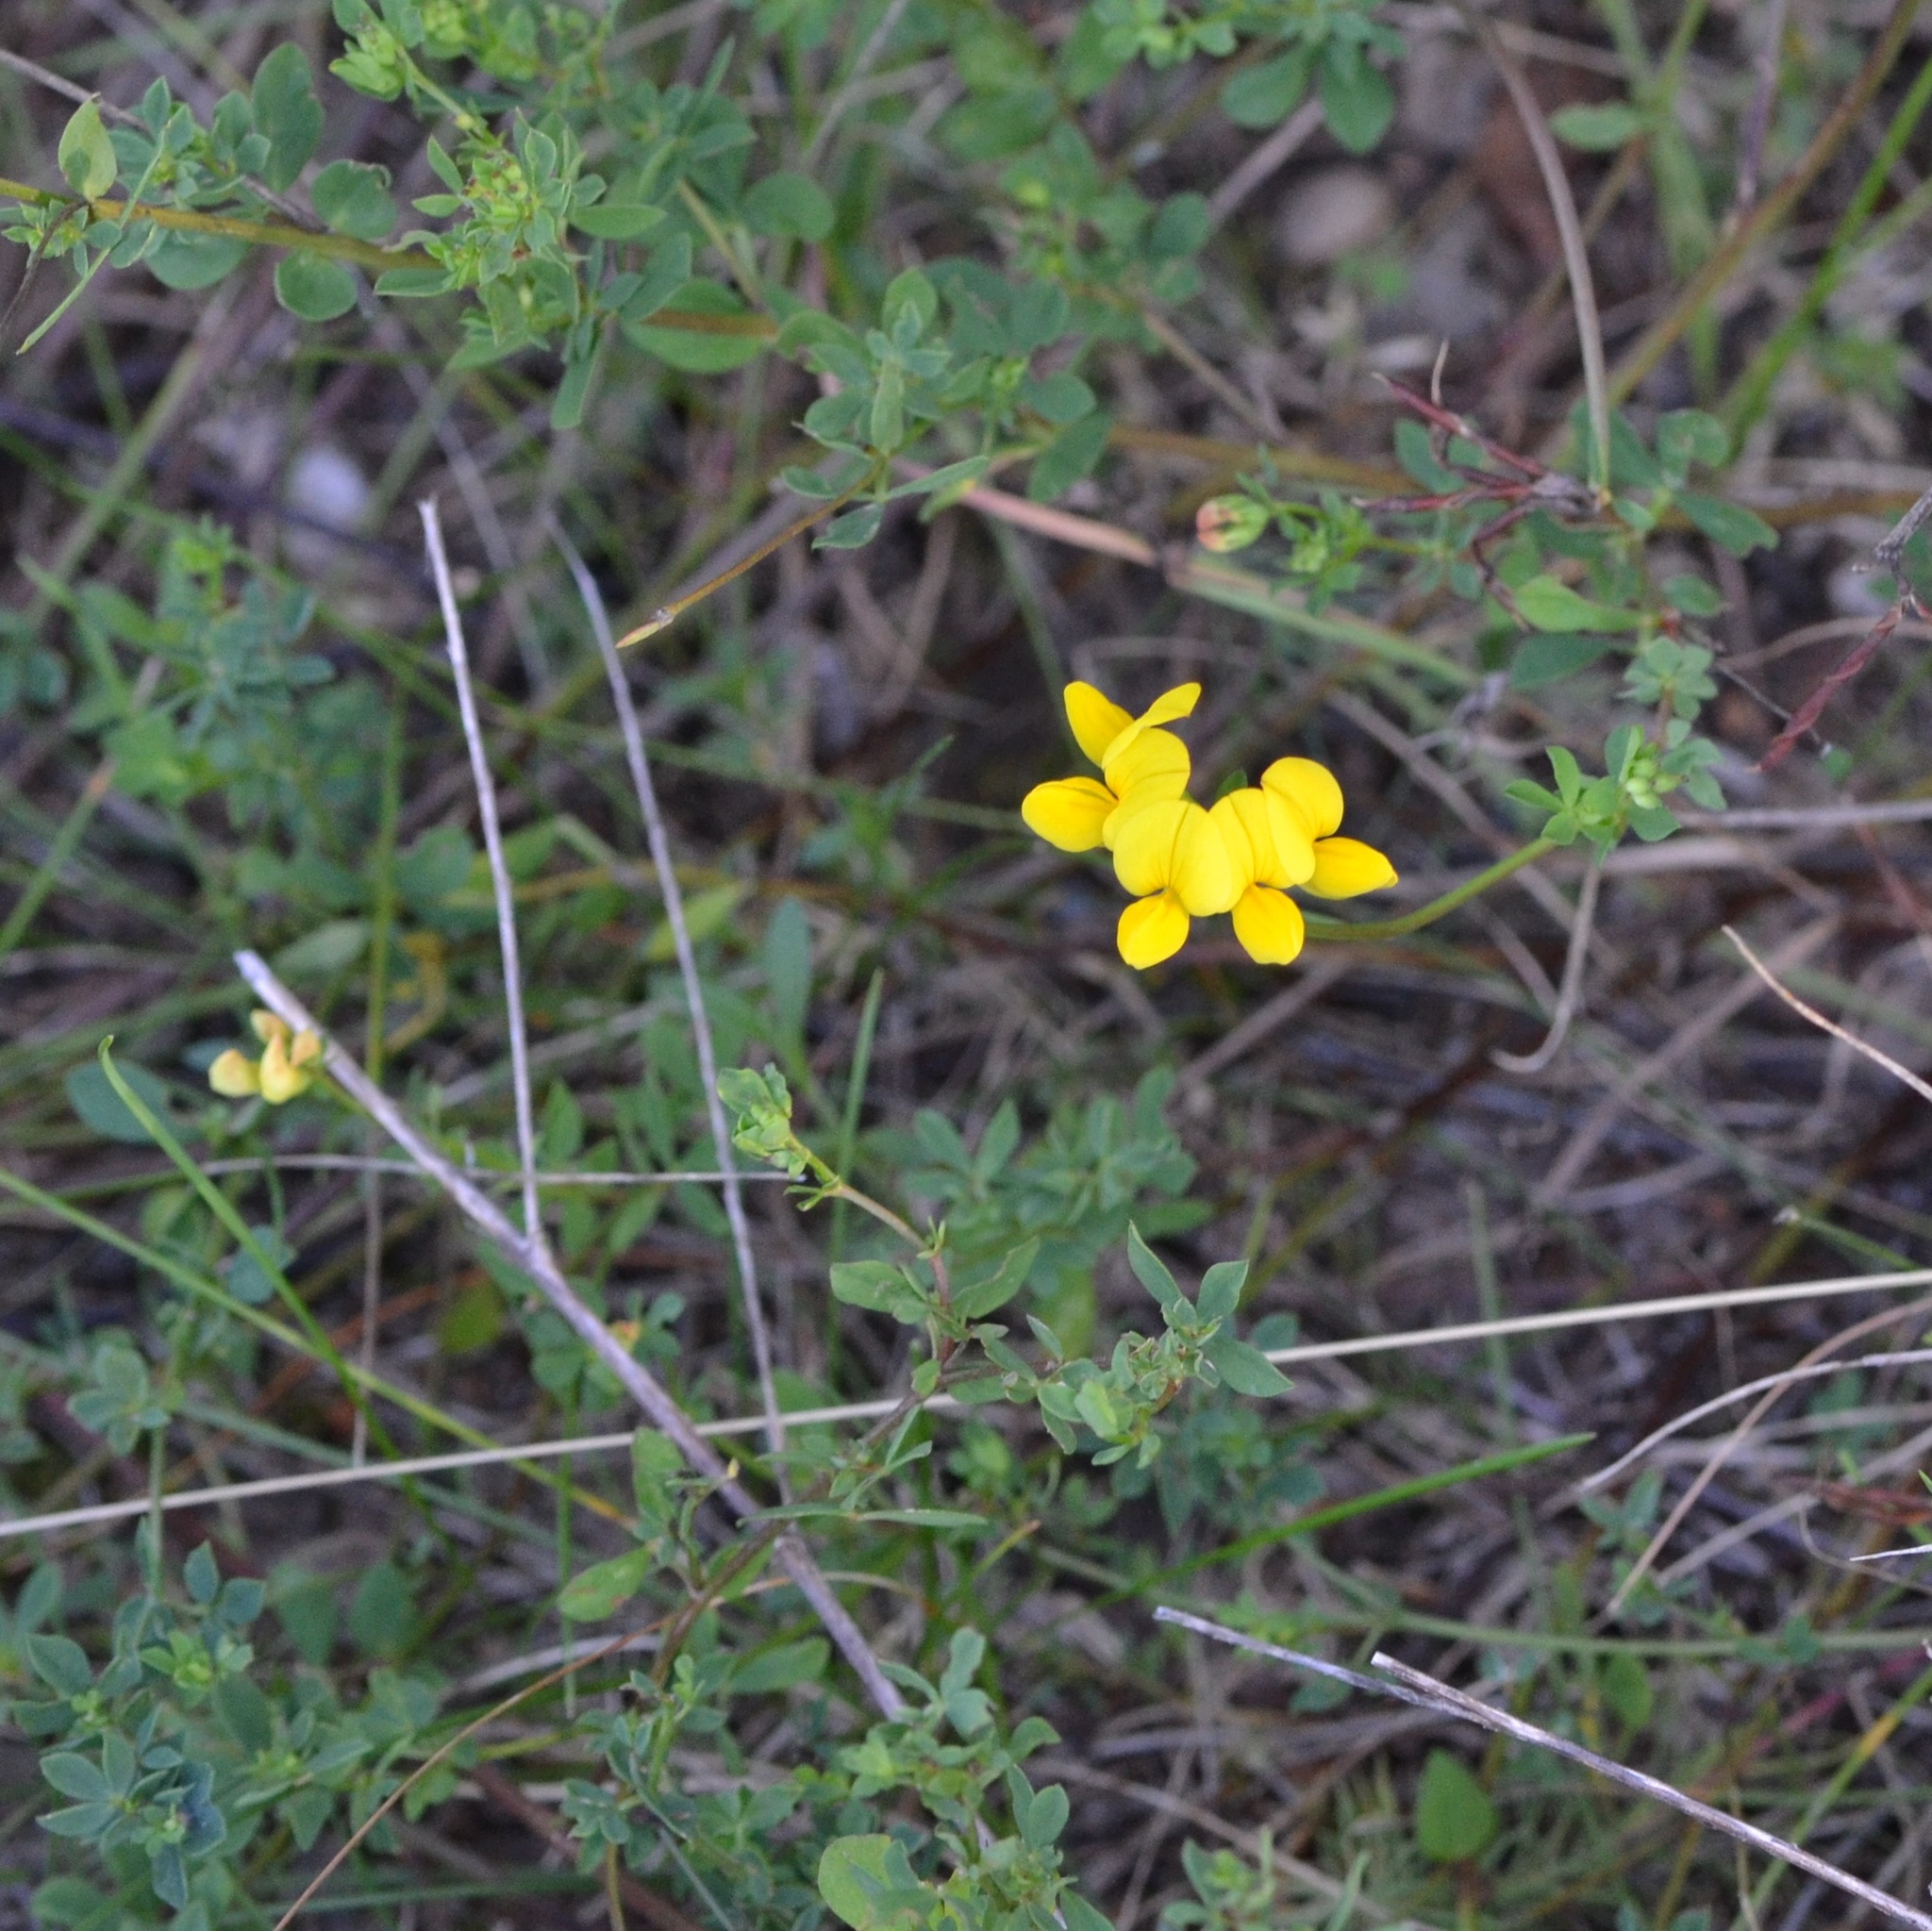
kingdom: Plantae
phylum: Tracheophyta
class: Magnoliopsida
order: Fabales
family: Fabaceae
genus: Lotus
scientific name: Lotus corniculatus
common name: Common bird's-foot-trefoil
